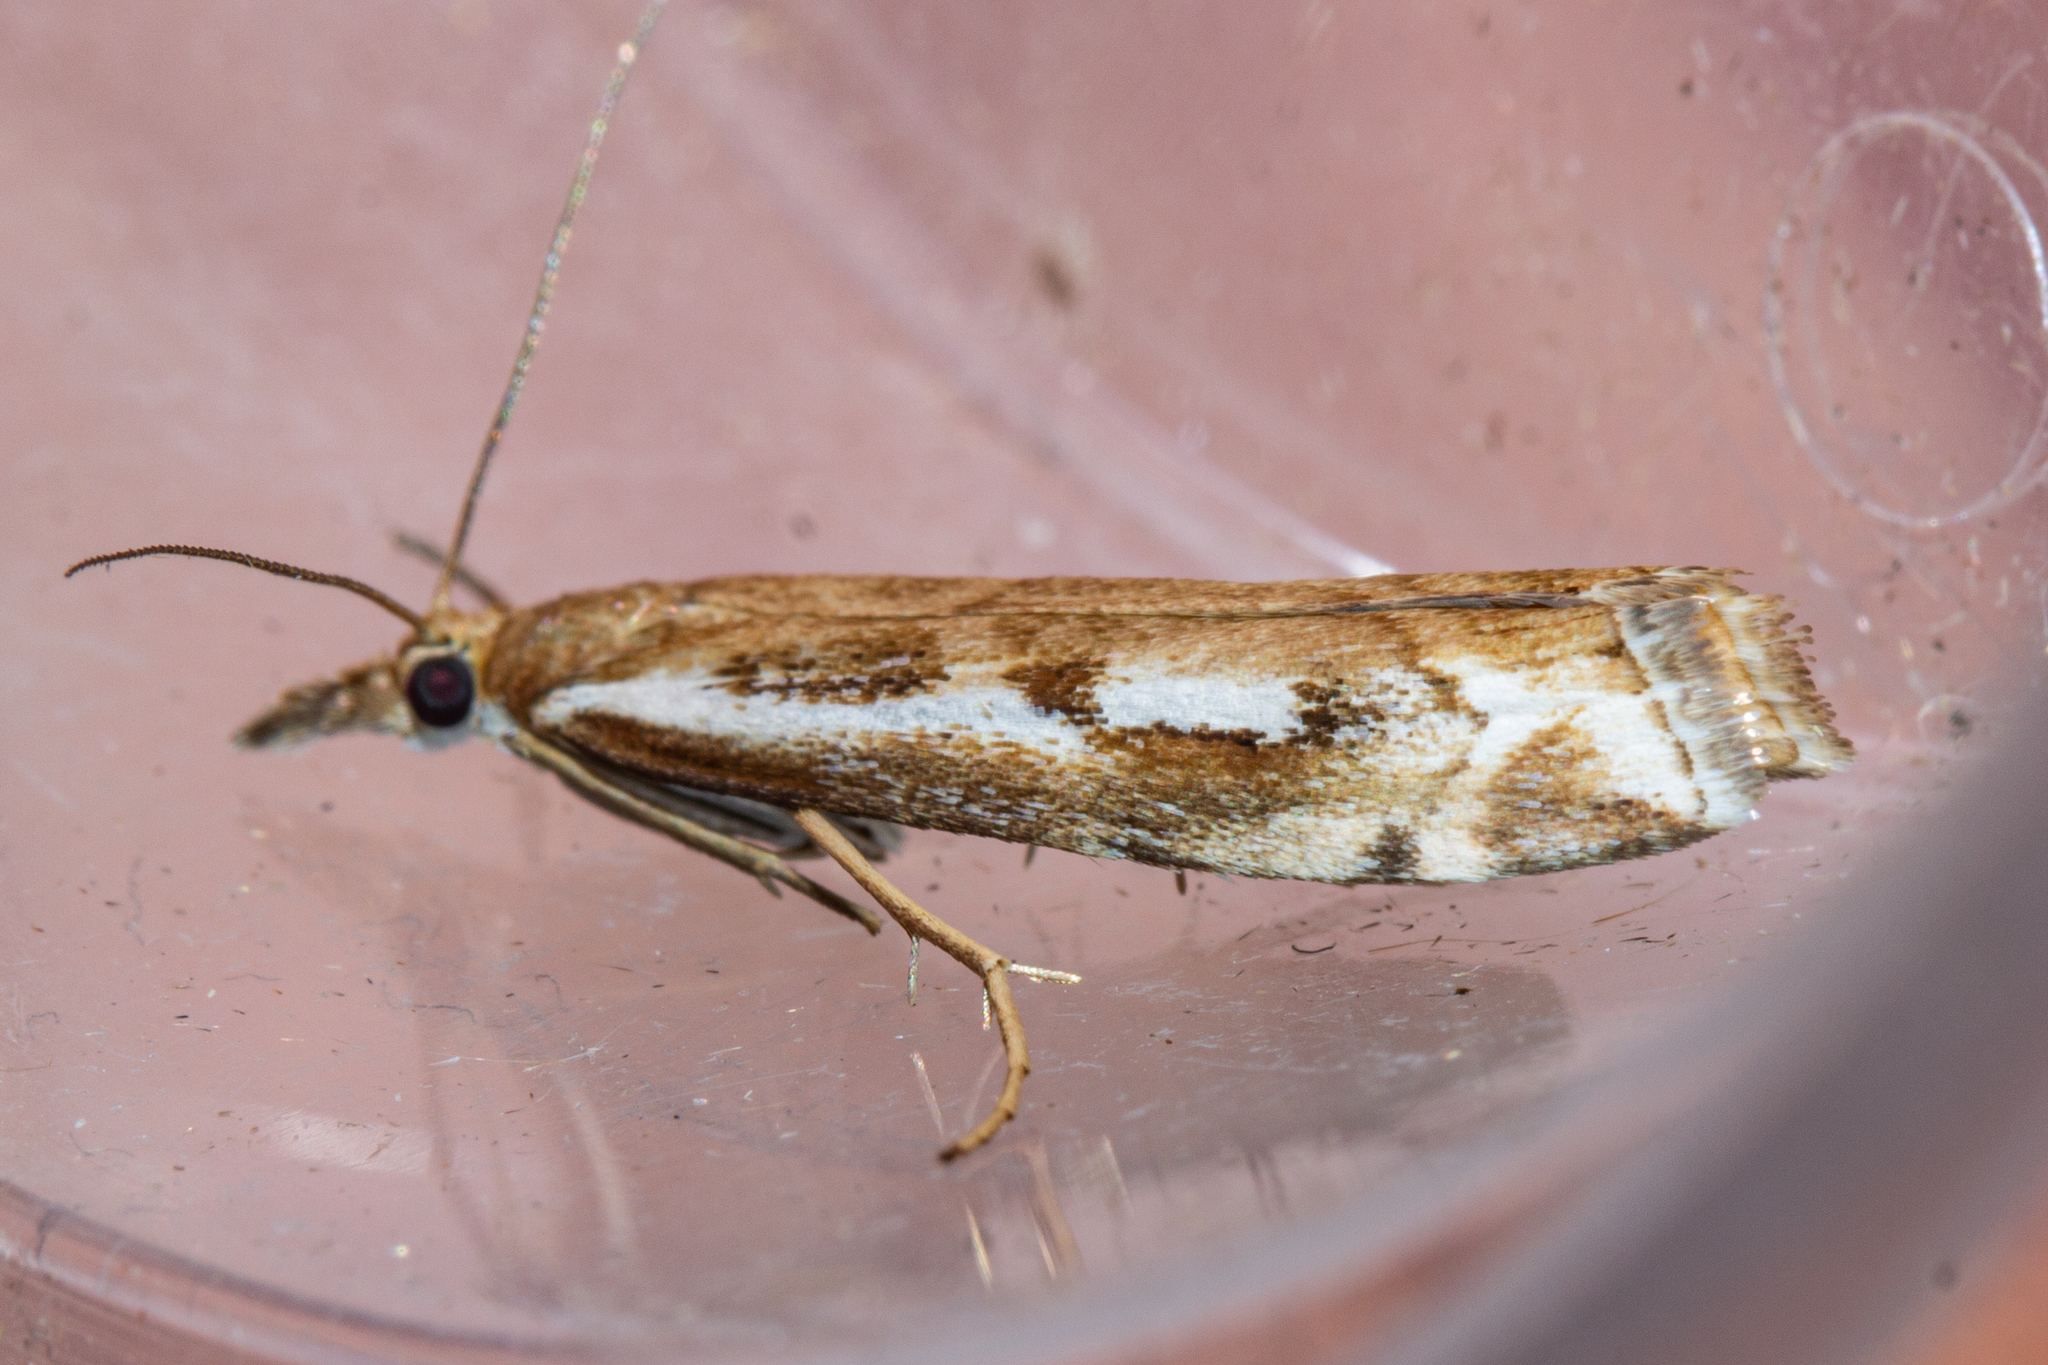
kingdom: Animalia
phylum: Arthropoda
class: Insecta
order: Lepidoptera
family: Crambidae
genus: Orocrambus
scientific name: Orocrambus vulgaris
